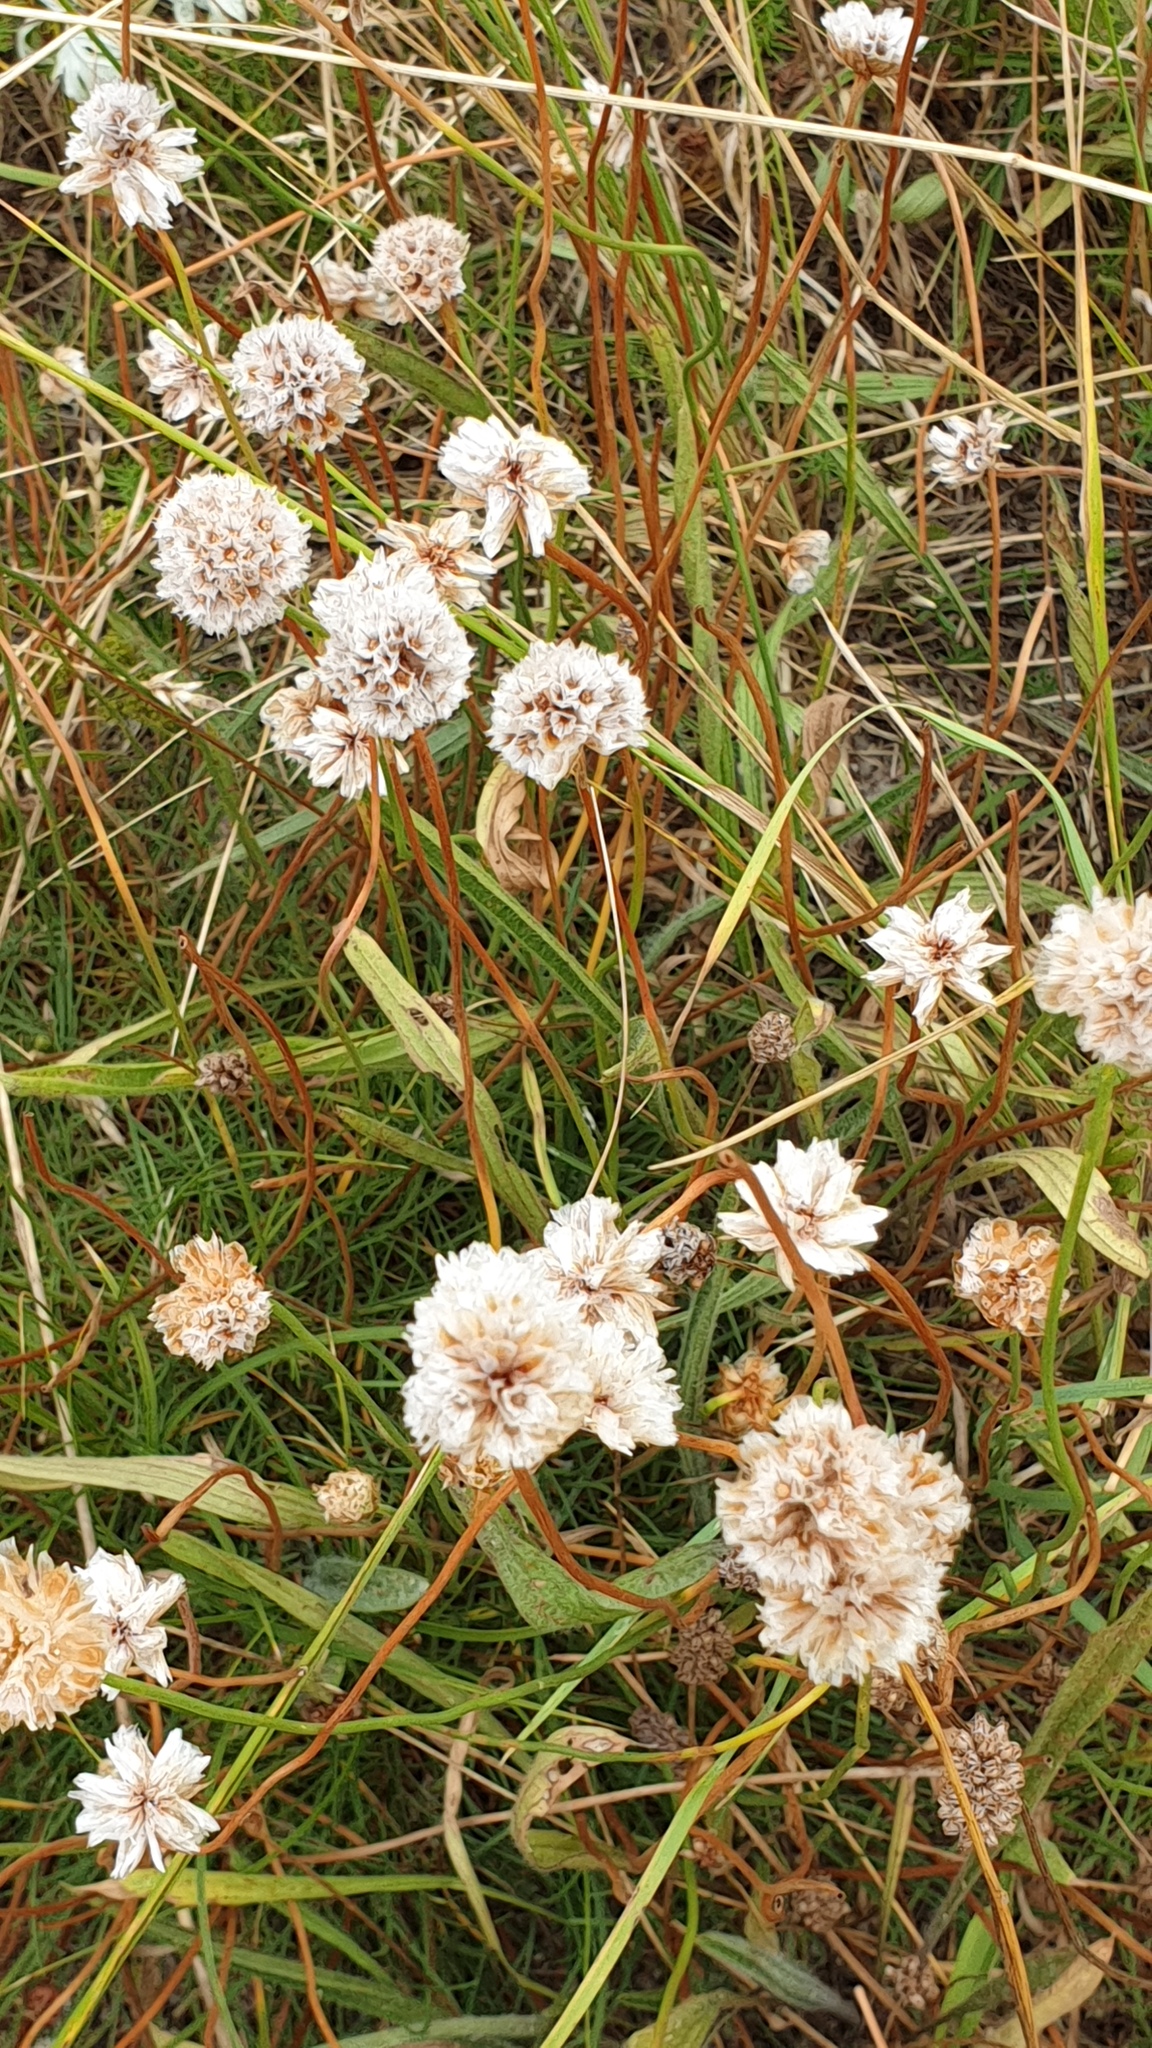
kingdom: Plantae
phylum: Tracheophyta
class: Magnoliopsida
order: Caryophyllales
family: Plumbaginaceae
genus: Armeria
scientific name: Armeria maritima
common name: Thrift
